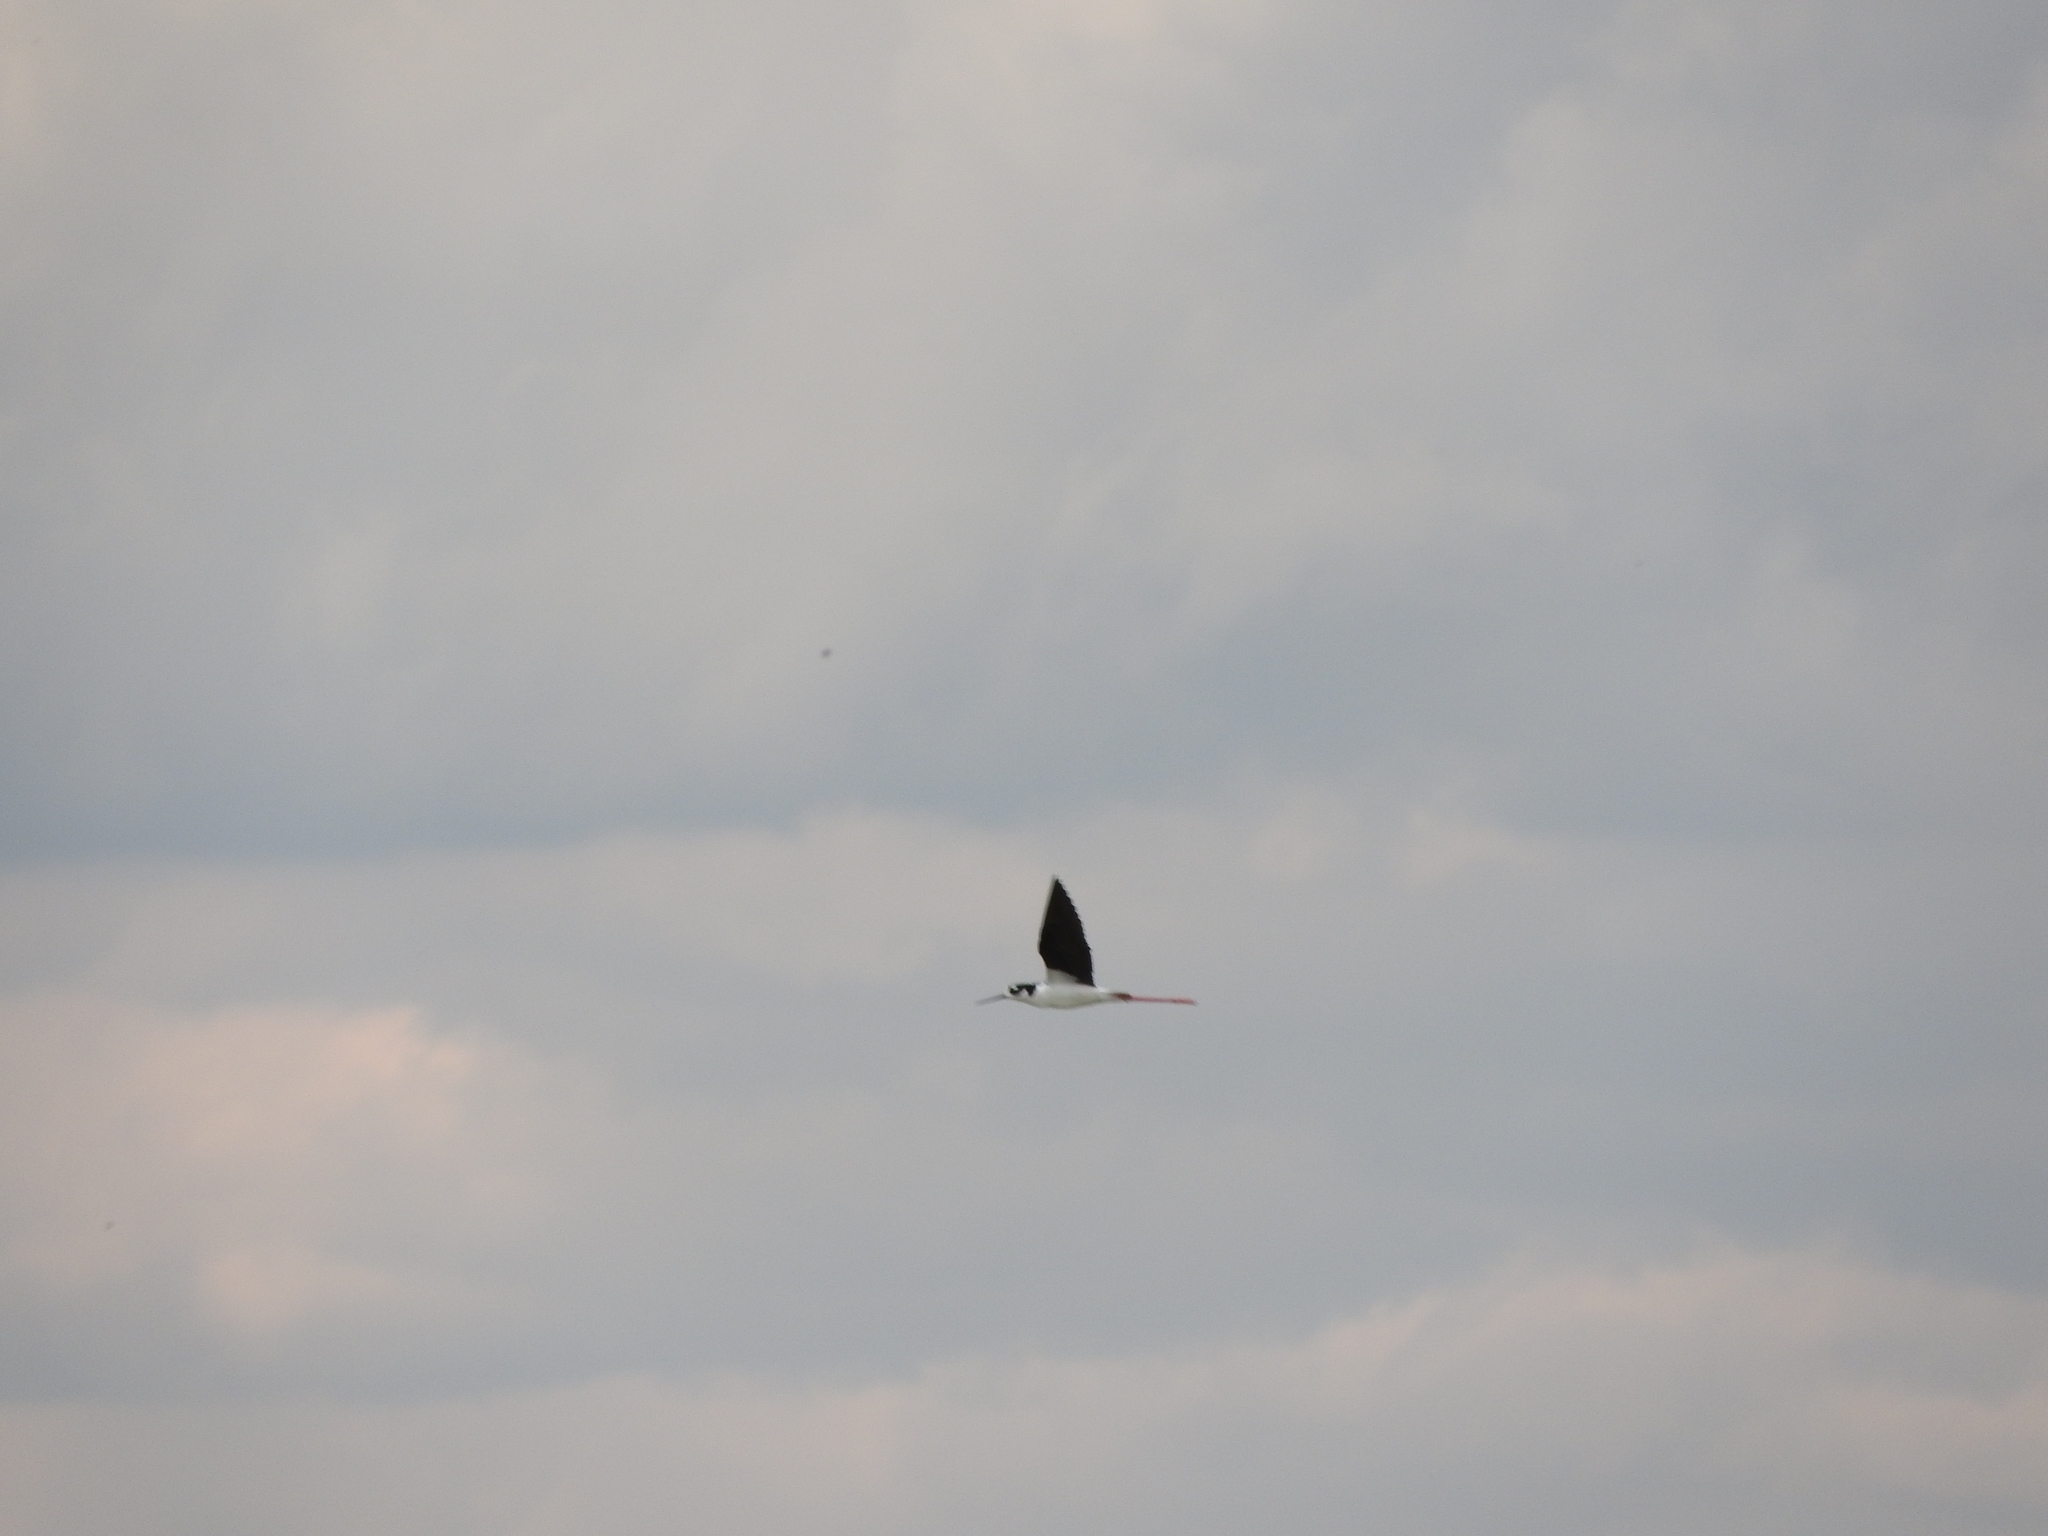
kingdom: Animalia
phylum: Chordata
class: Aves
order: Charadriiformes
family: Recurvirostridae
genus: Himantopus
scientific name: Himantopus mexicanus
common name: Black-necked stilt
